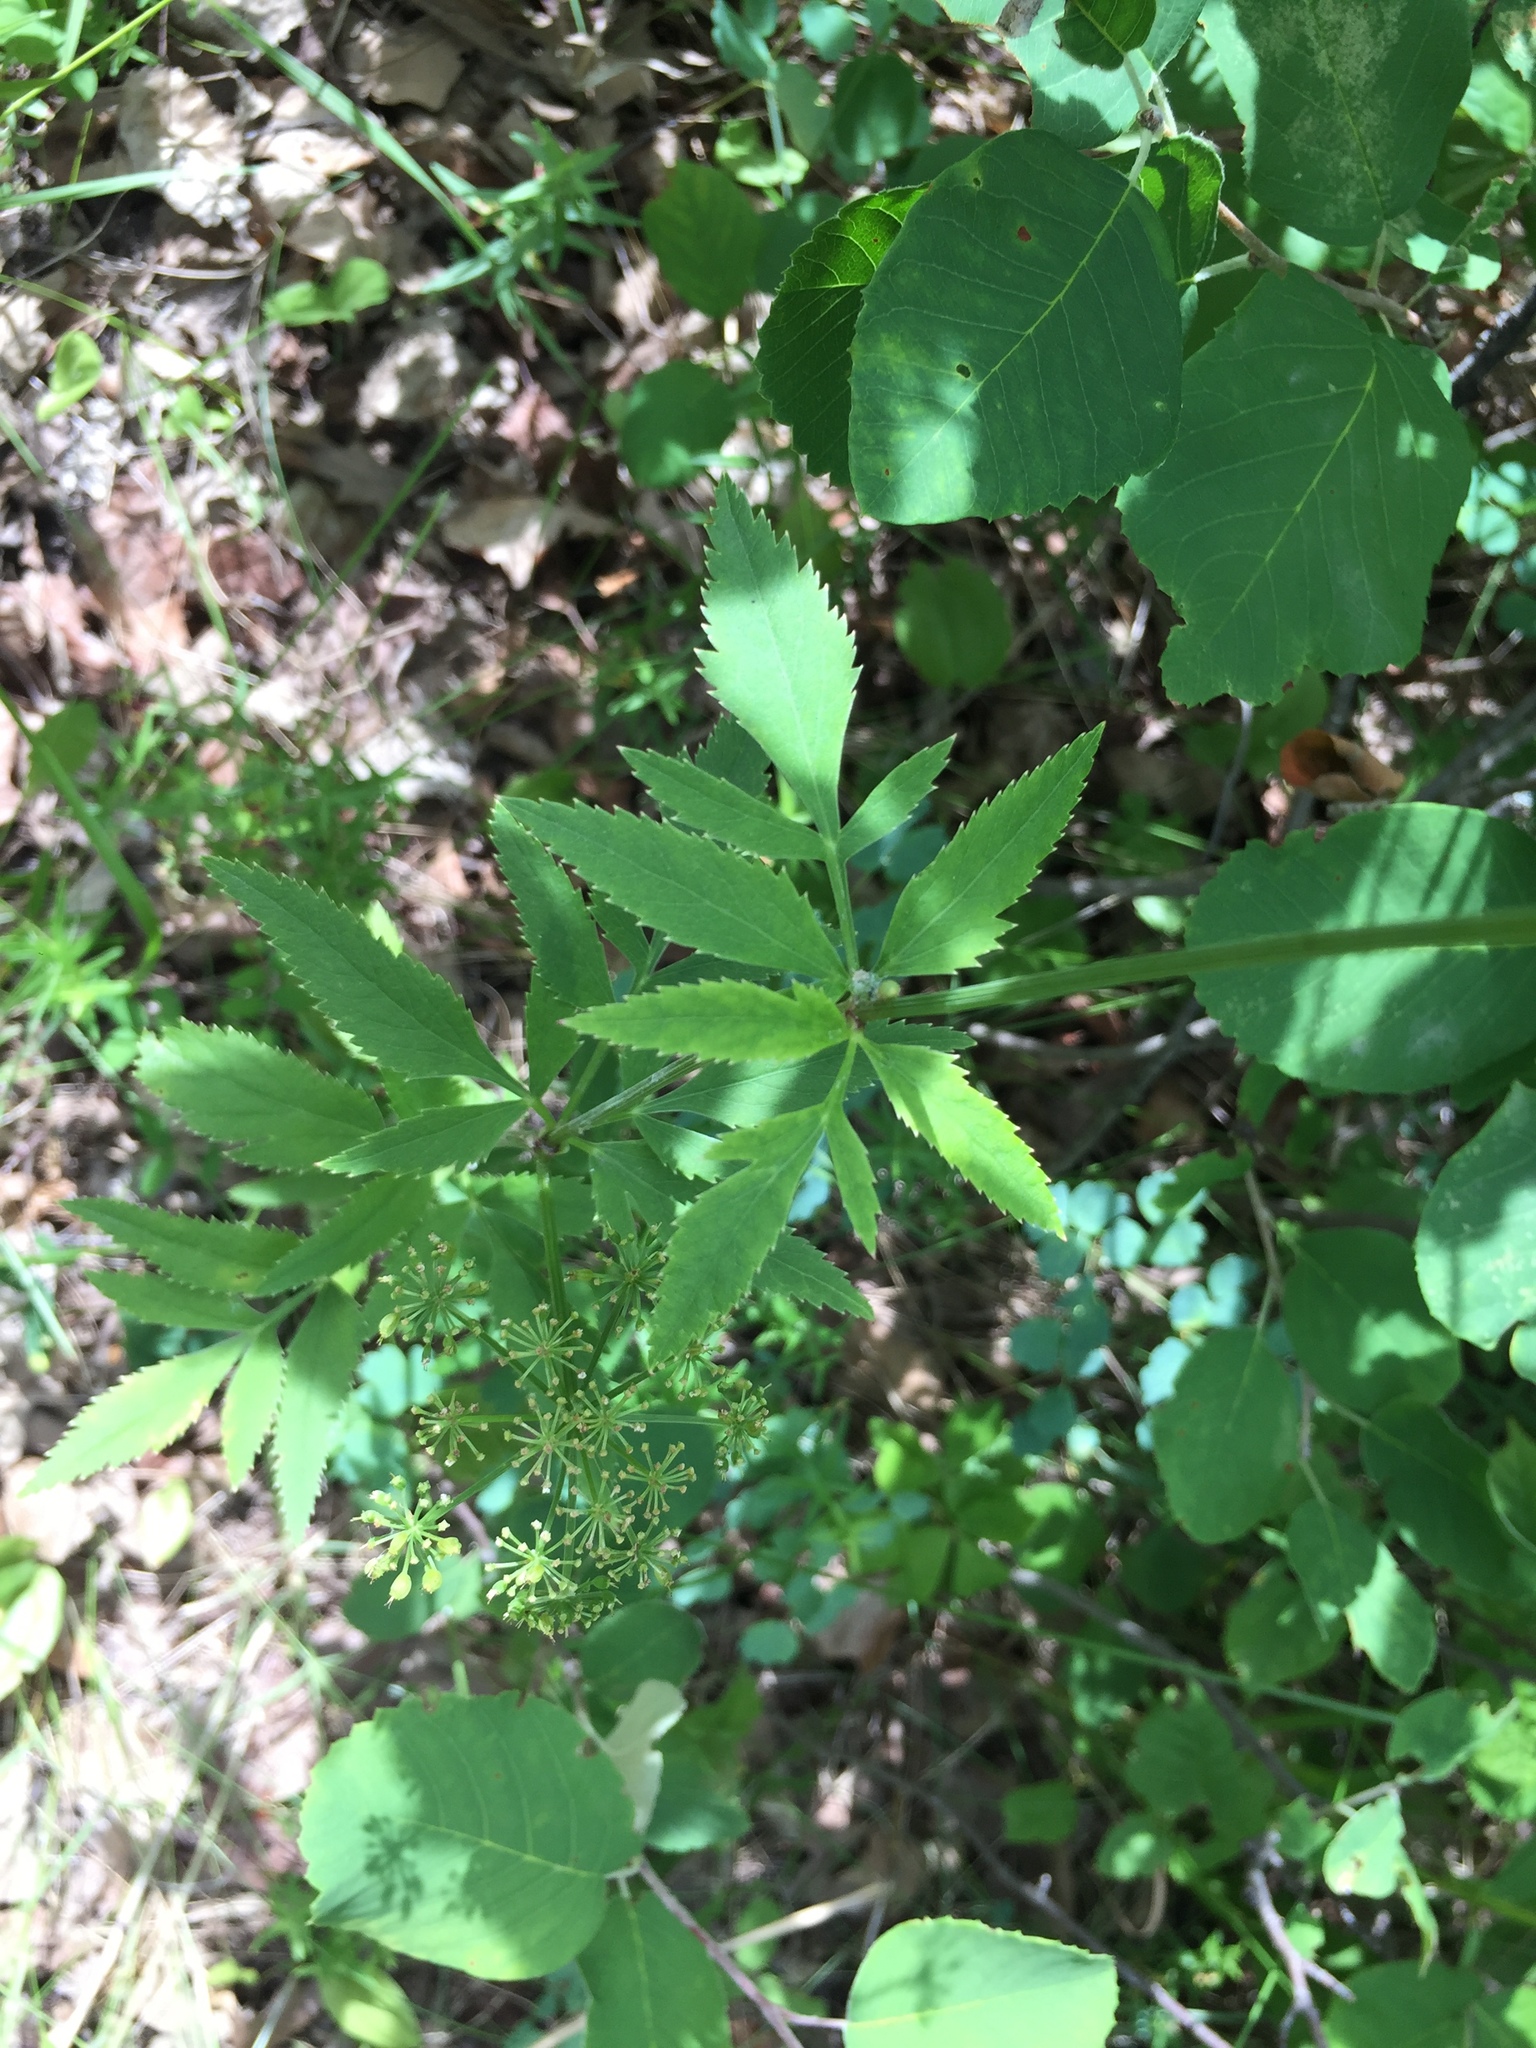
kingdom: Plantae
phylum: Tracheophyta
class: Magnoliopsida
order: Apiales
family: Apiaceae
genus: Zizia
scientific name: Zizia aurea
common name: Golden alexanders
